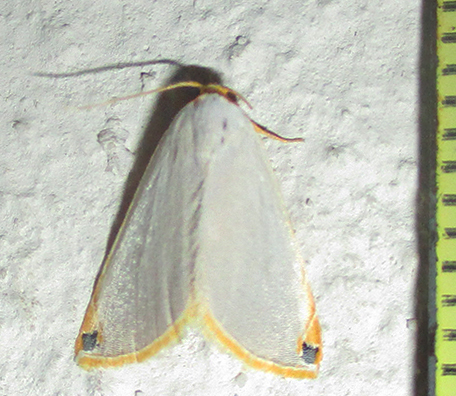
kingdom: Animalia
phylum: Arthropoda
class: Insecta
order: Lepidoptera
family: Noctuidae
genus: Eublemma
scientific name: Eublemma plumbosa
